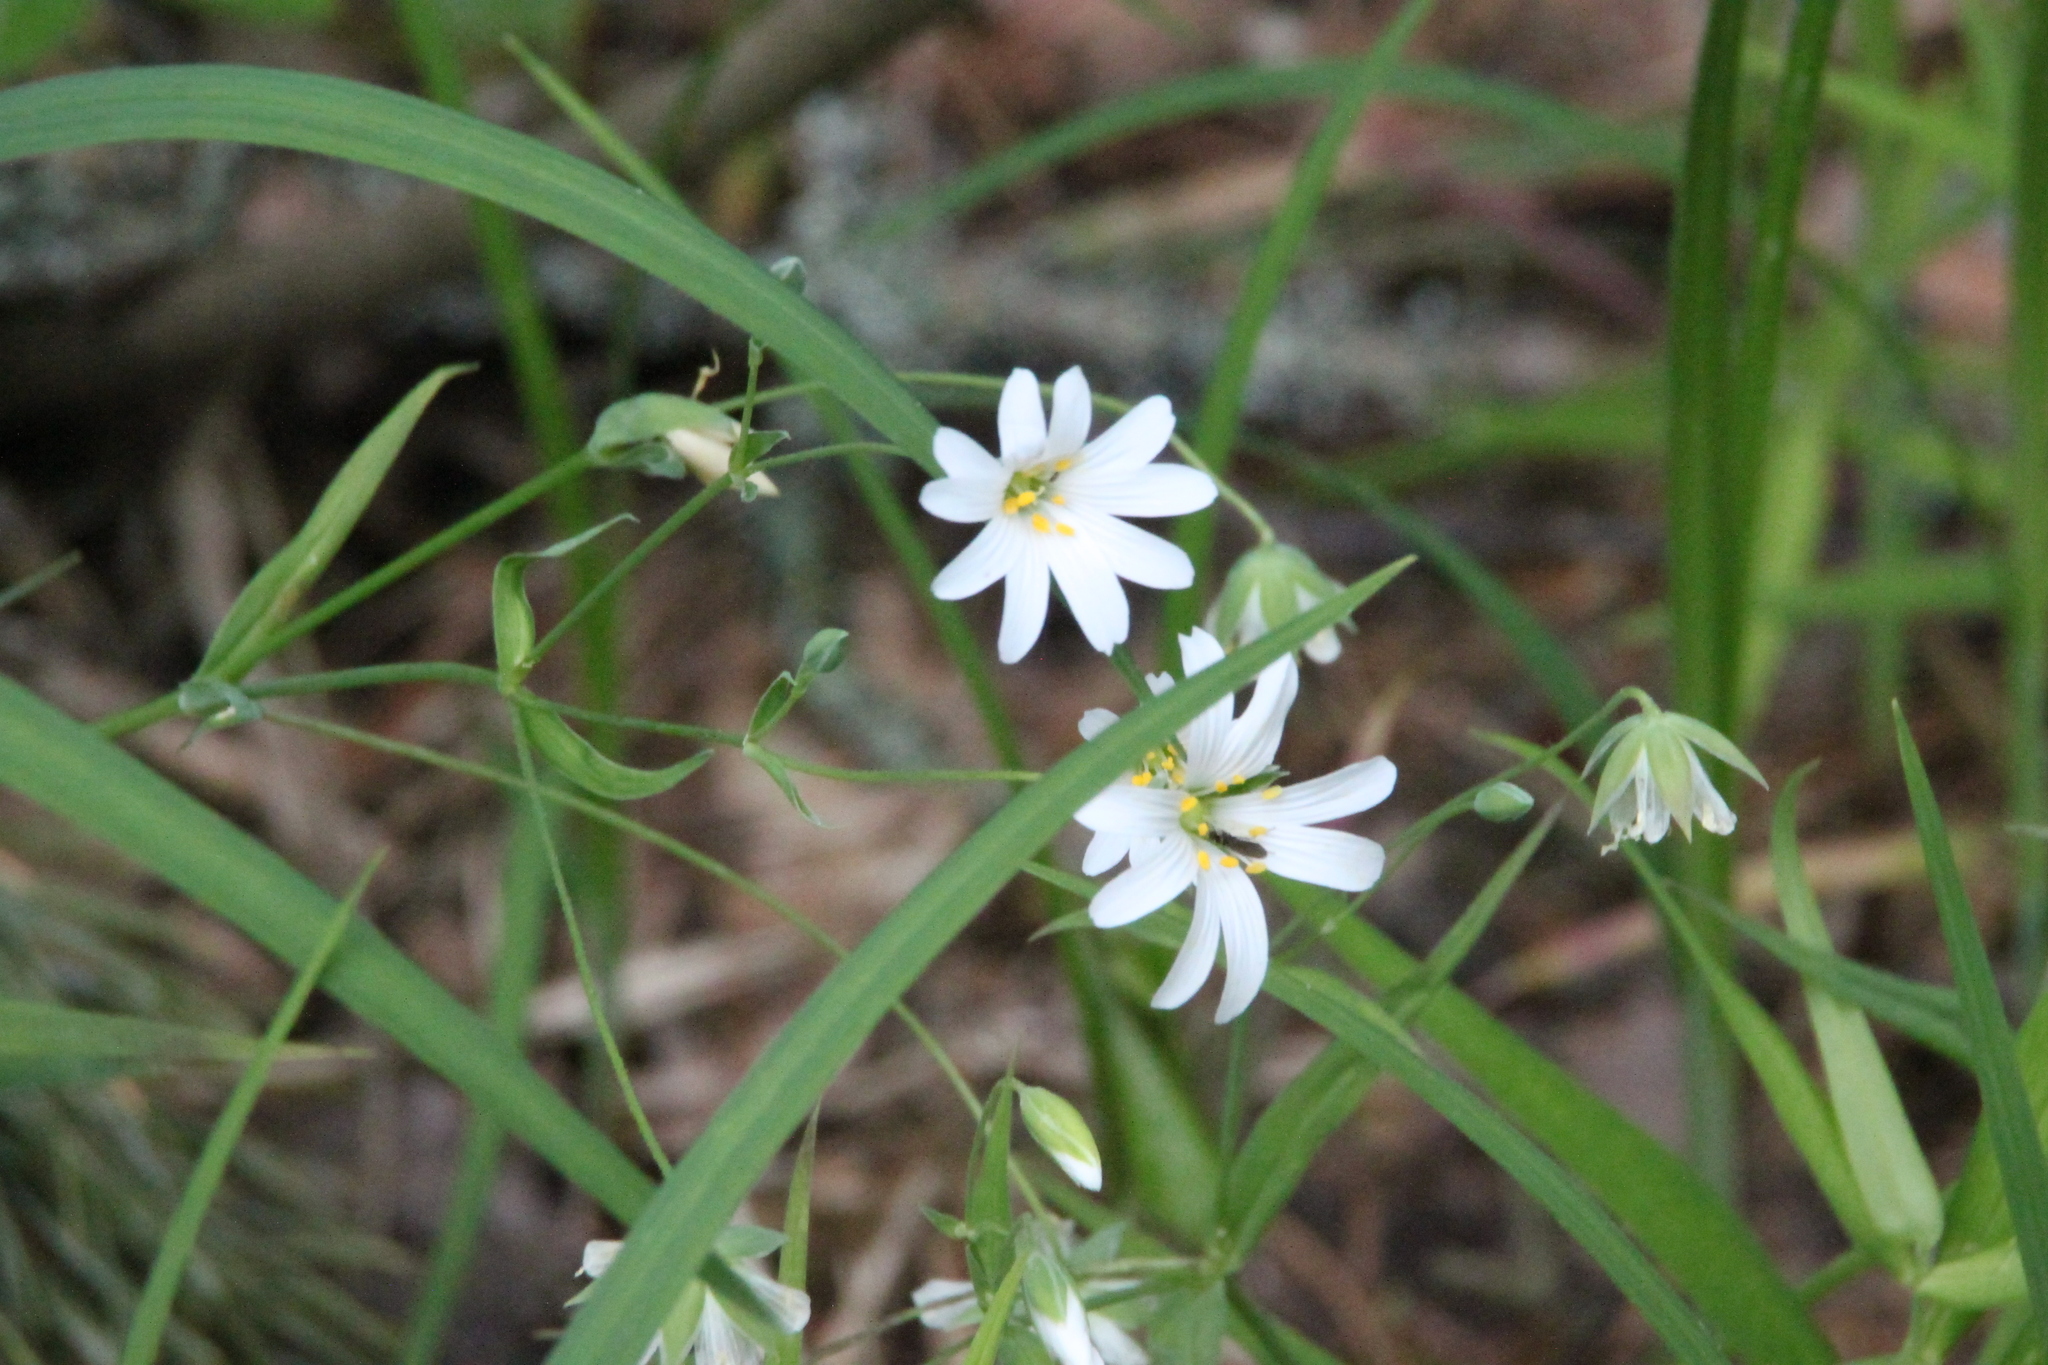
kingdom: Plantae
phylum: Tracheophyta
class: Magnoliopsida
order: Caryophyllales
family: Caryophyllaceae
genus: Rabelera
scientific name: Rabelera holostea
